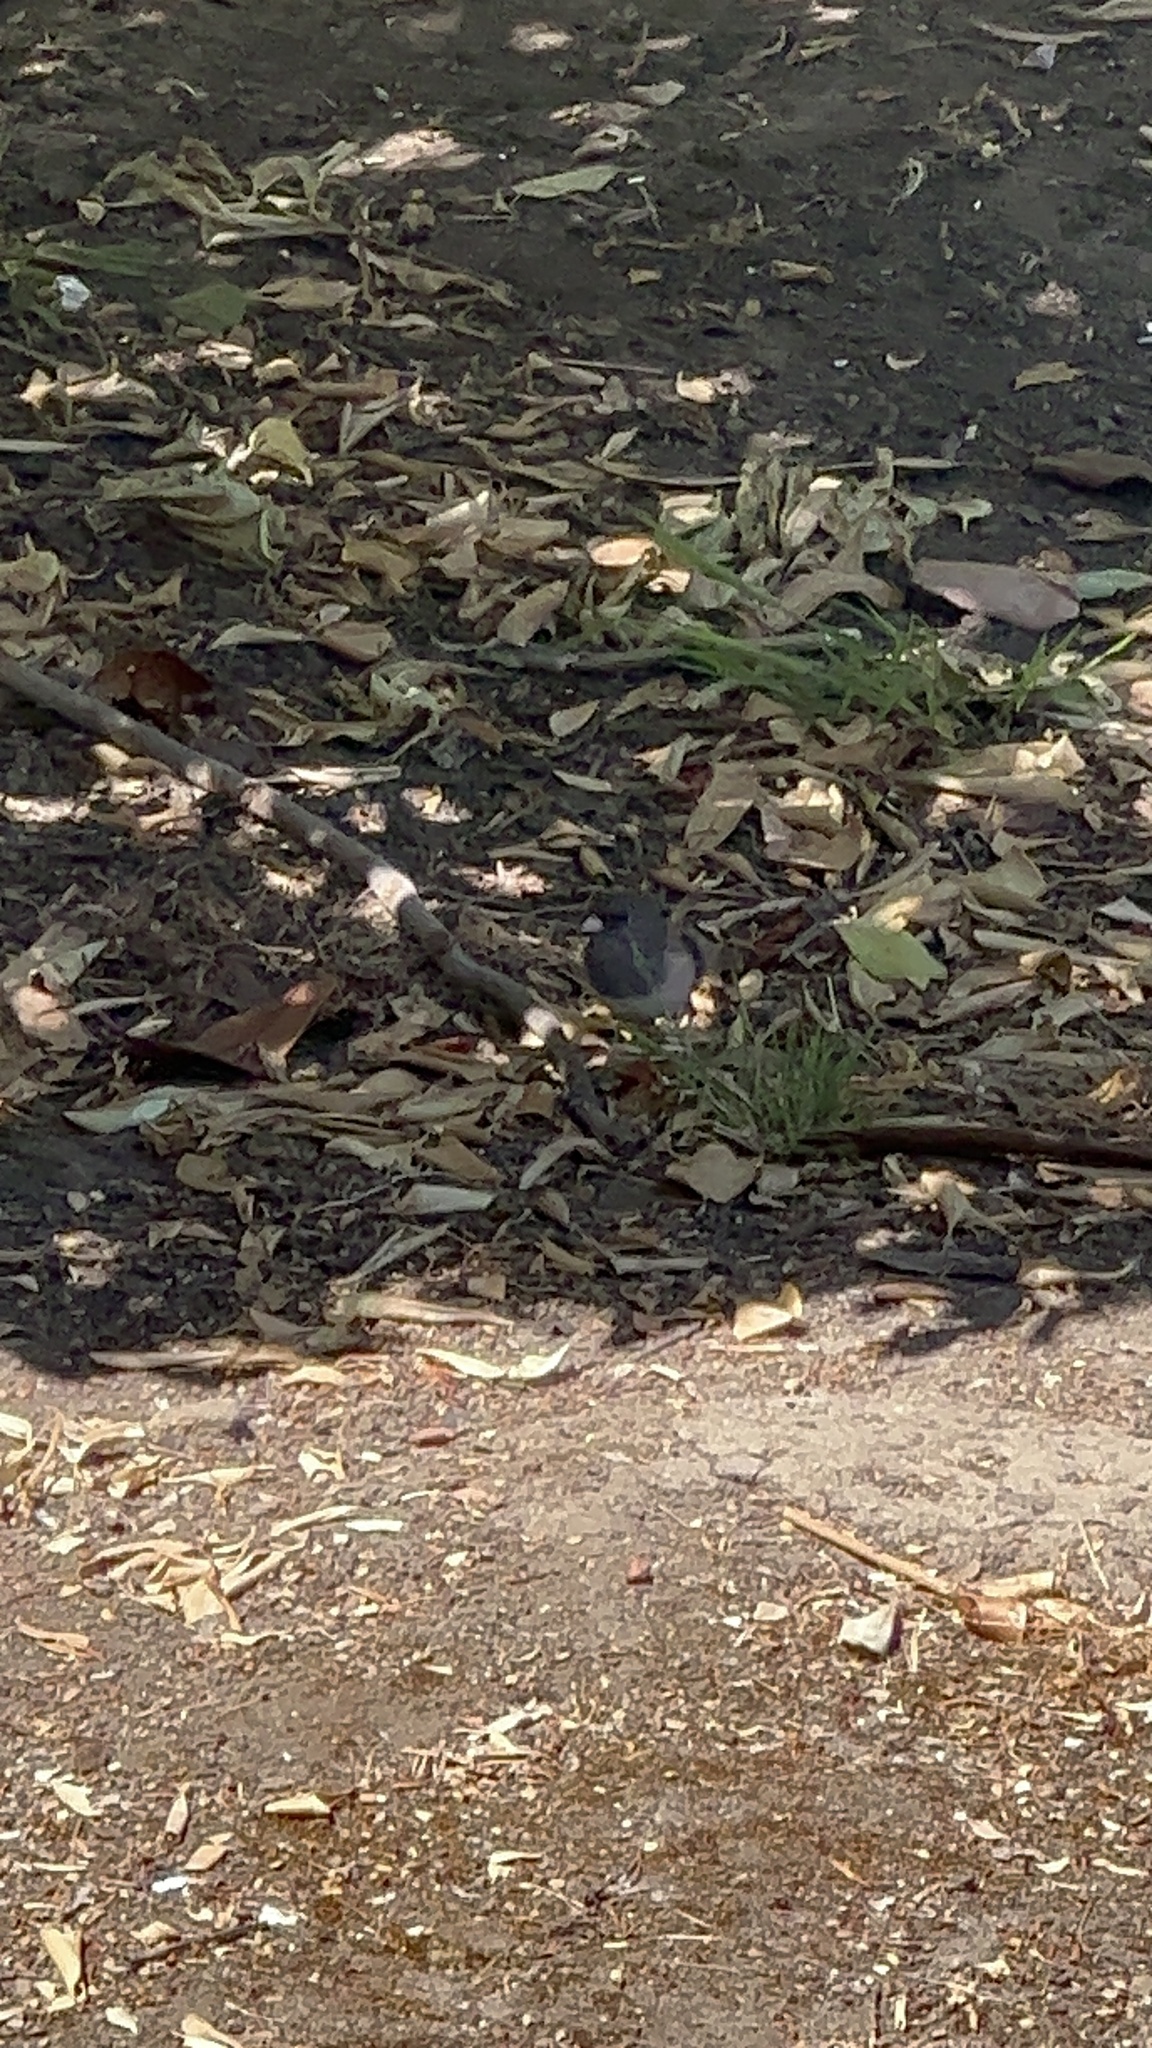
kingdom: Animalia
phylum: Chordata
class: Aves
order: Passeriformes
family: Passerellidae
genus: Junco
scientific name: Junco hyemalis
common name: Dark-eyed junco
